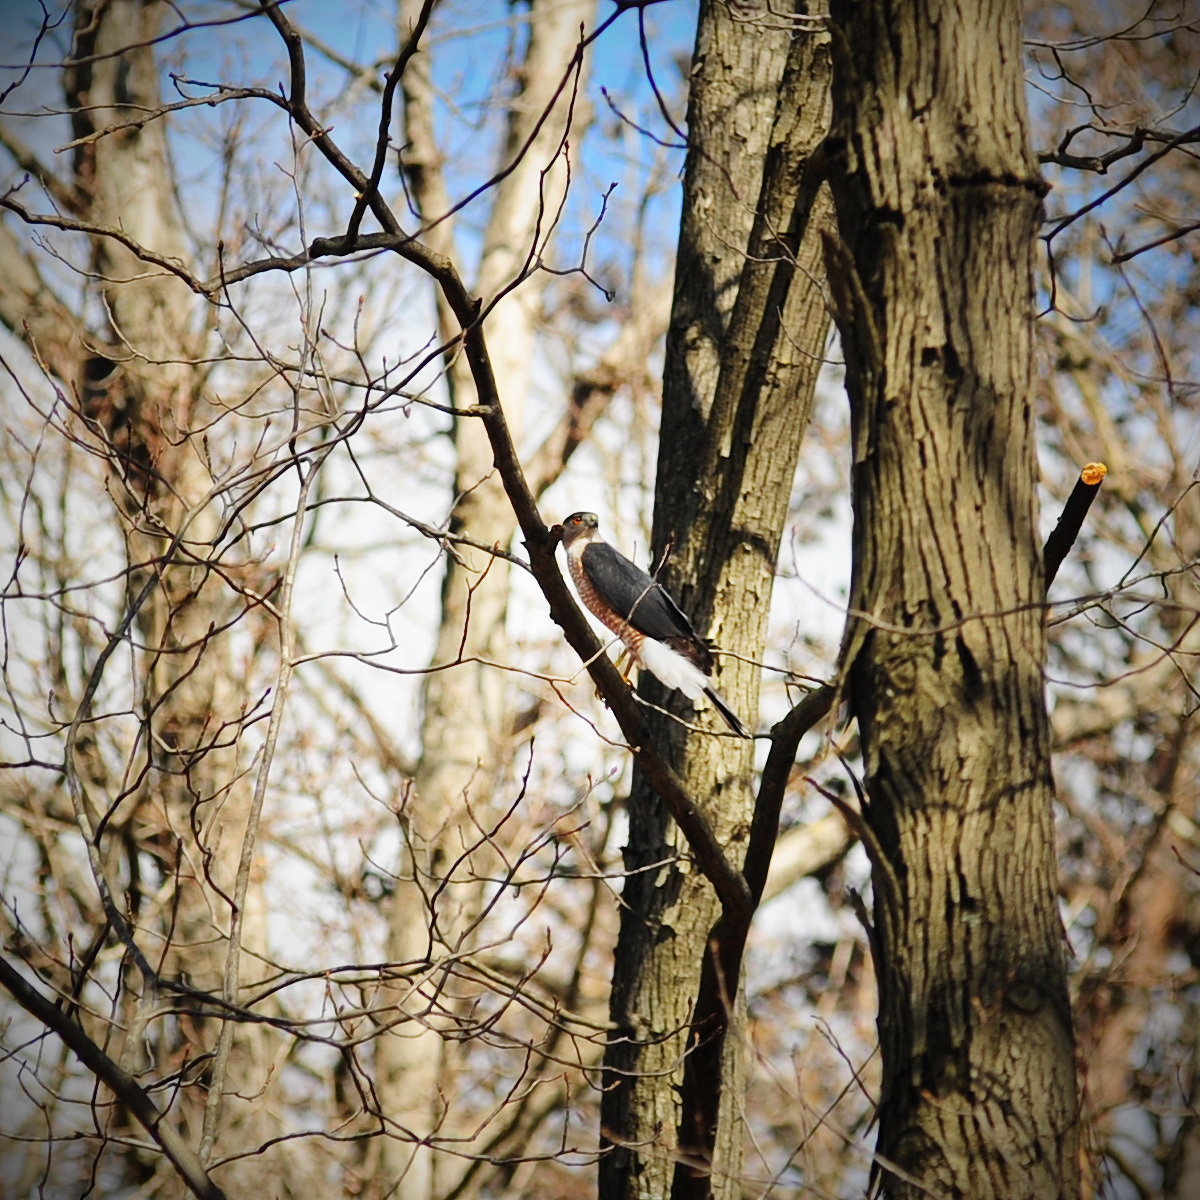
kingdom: Animalia
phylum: Chordata
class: Aves
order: Accipitriformes
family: Accipitridae
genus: Accipiter
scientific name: Accipiter cooperii
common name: Cooper's hawk
